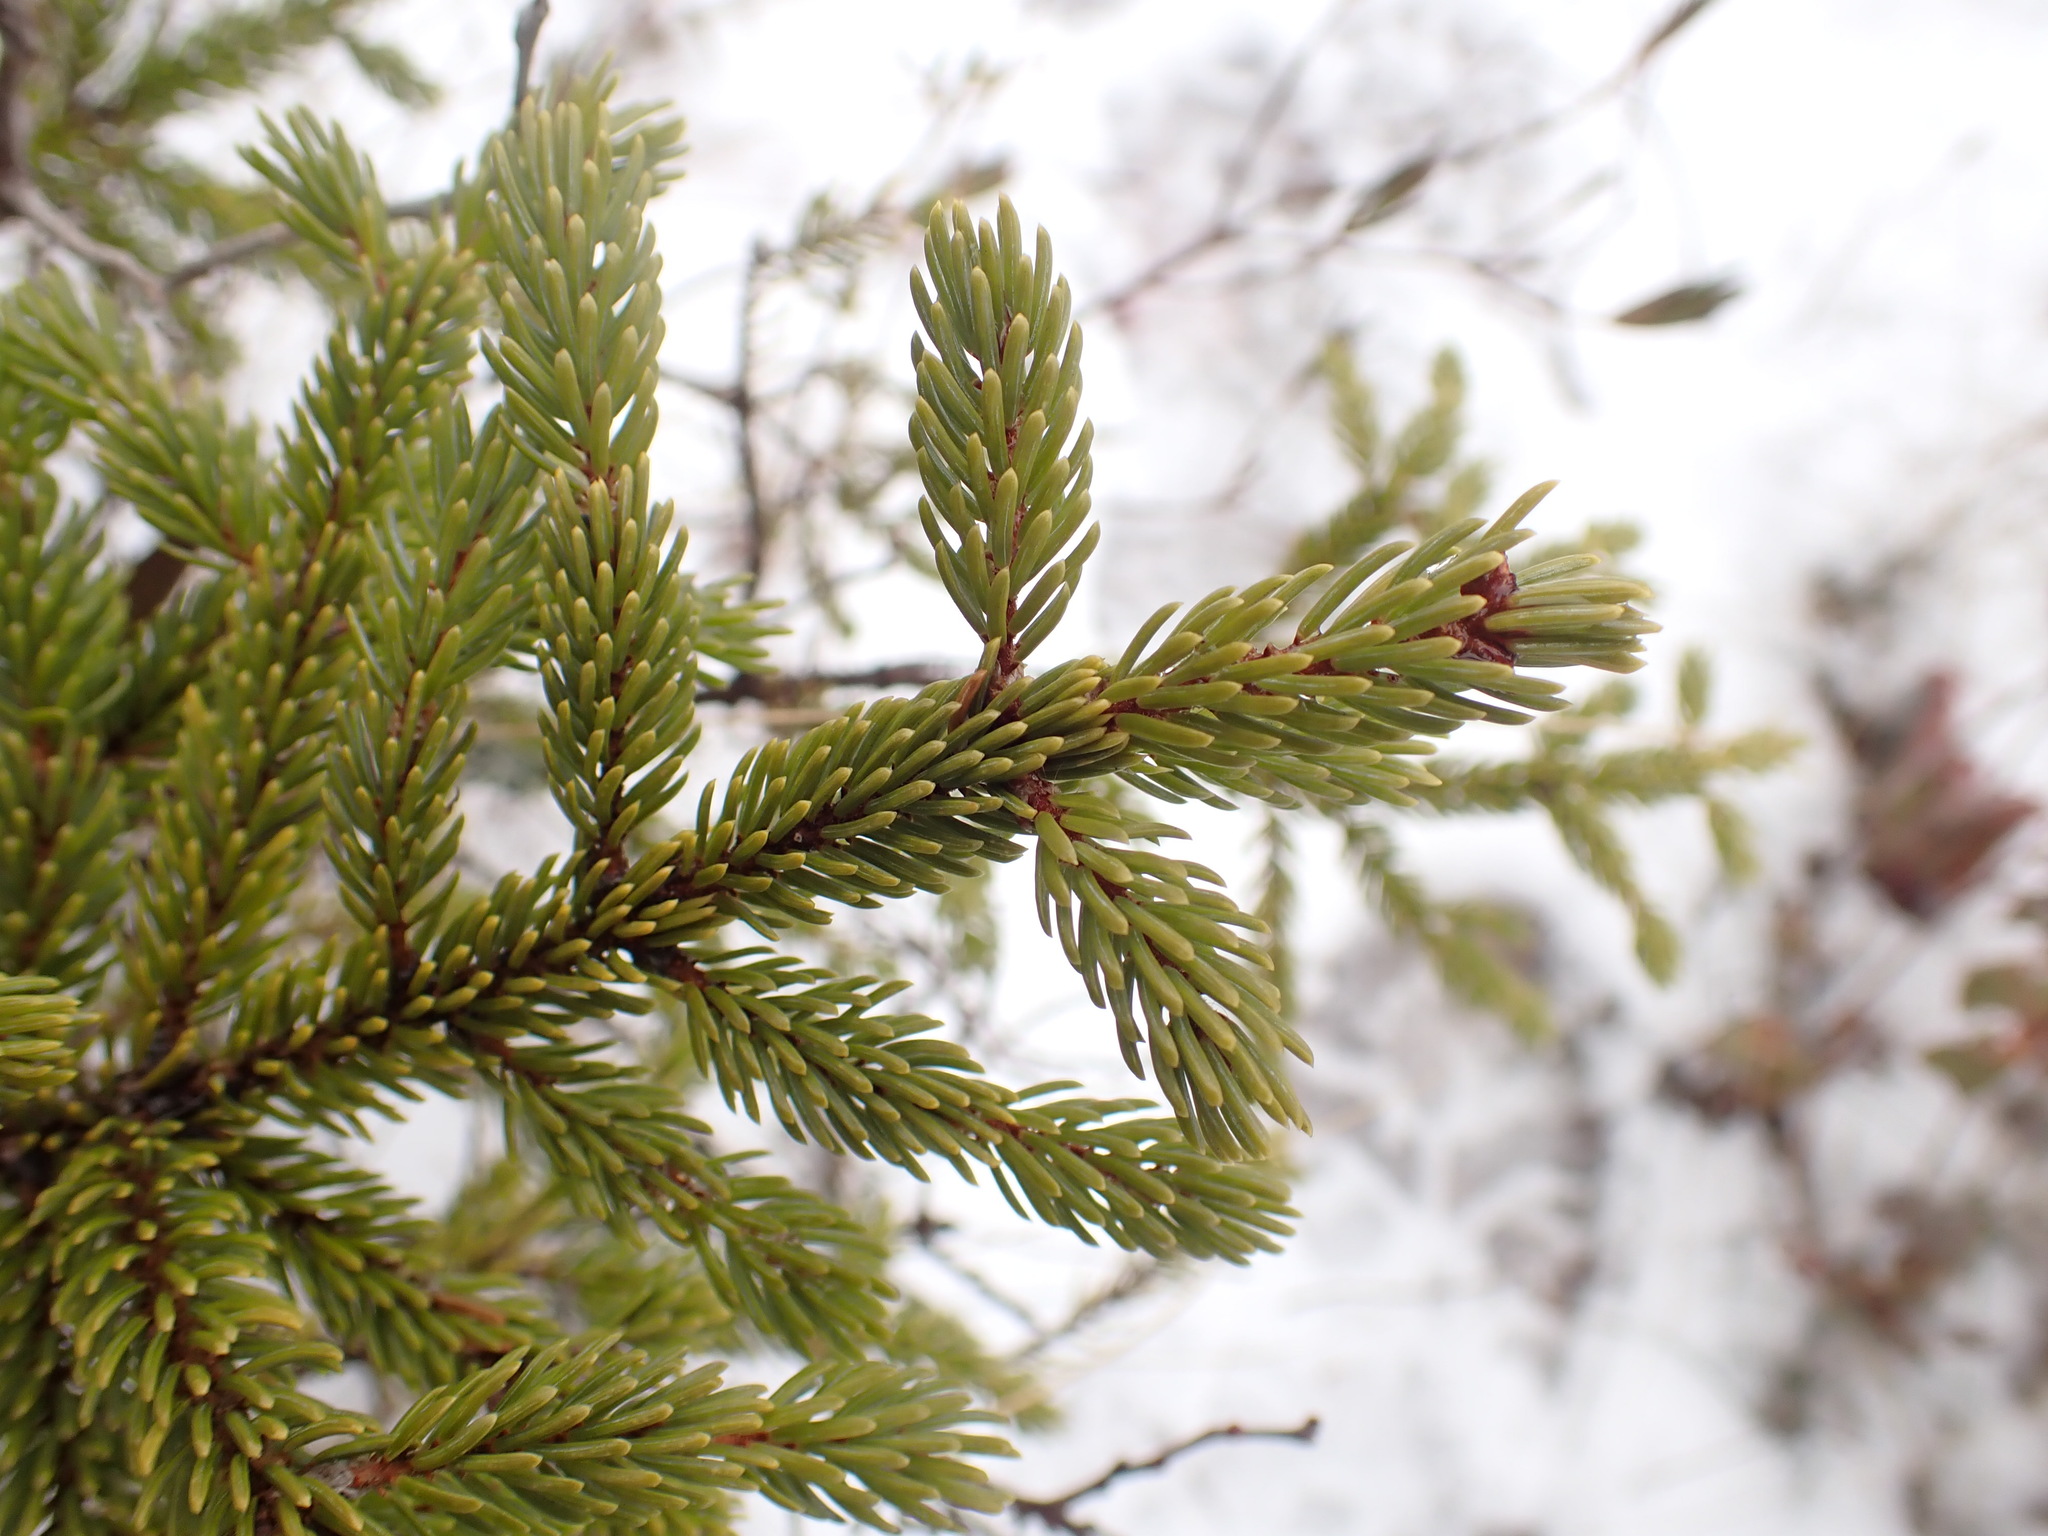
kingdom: Plantae
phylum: Tracheophyta
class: Pinopsida
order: Pinales
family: Pinaceae
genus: Picea
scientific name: Picea mariana
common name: Black spruce
